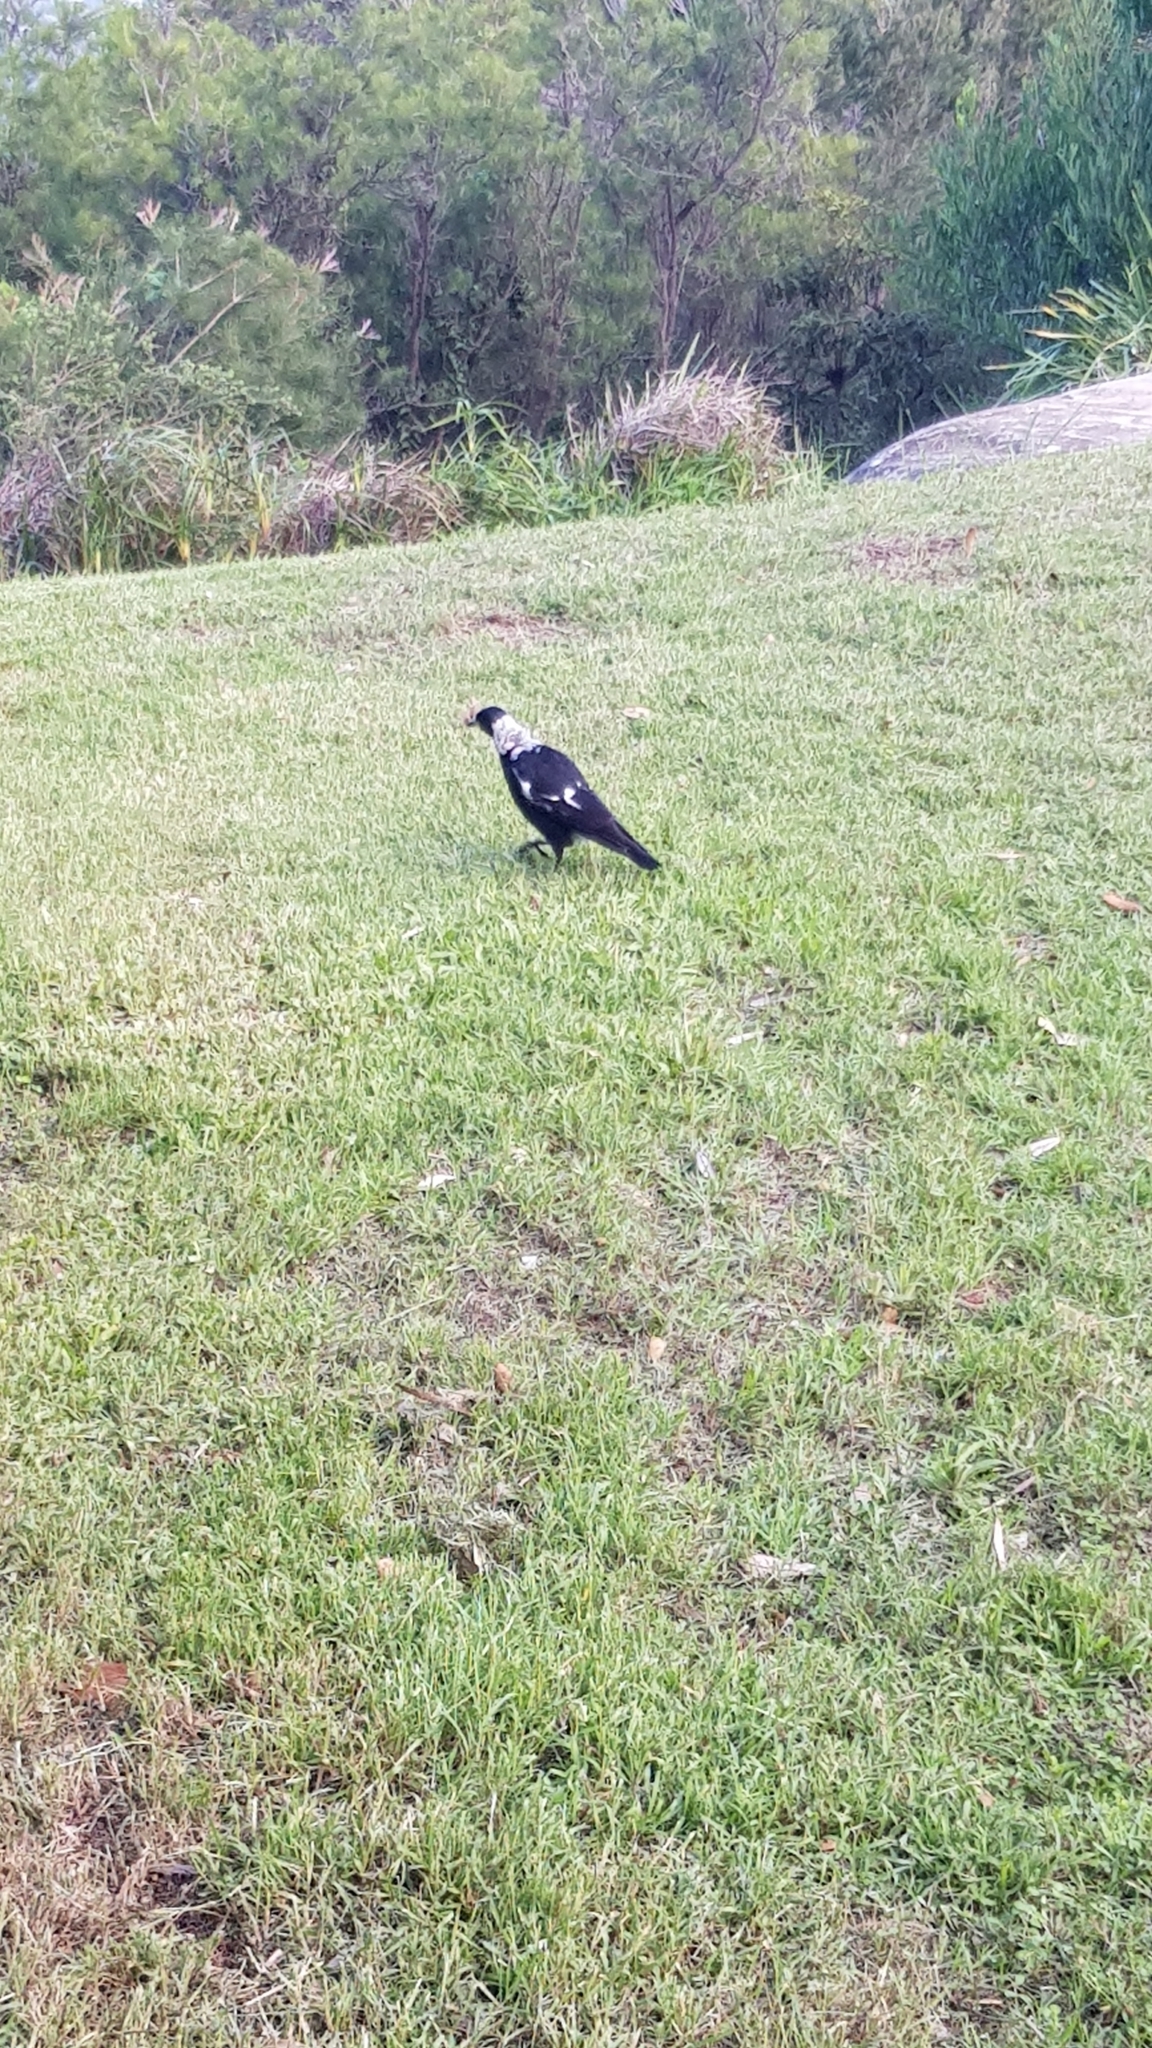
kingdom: Animalia
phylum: Chordata
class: Aves
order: Passeriformes
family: Cracticidae
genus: Gymnorhina
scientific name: Gymnorhina tibicen
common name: Australian magpie
